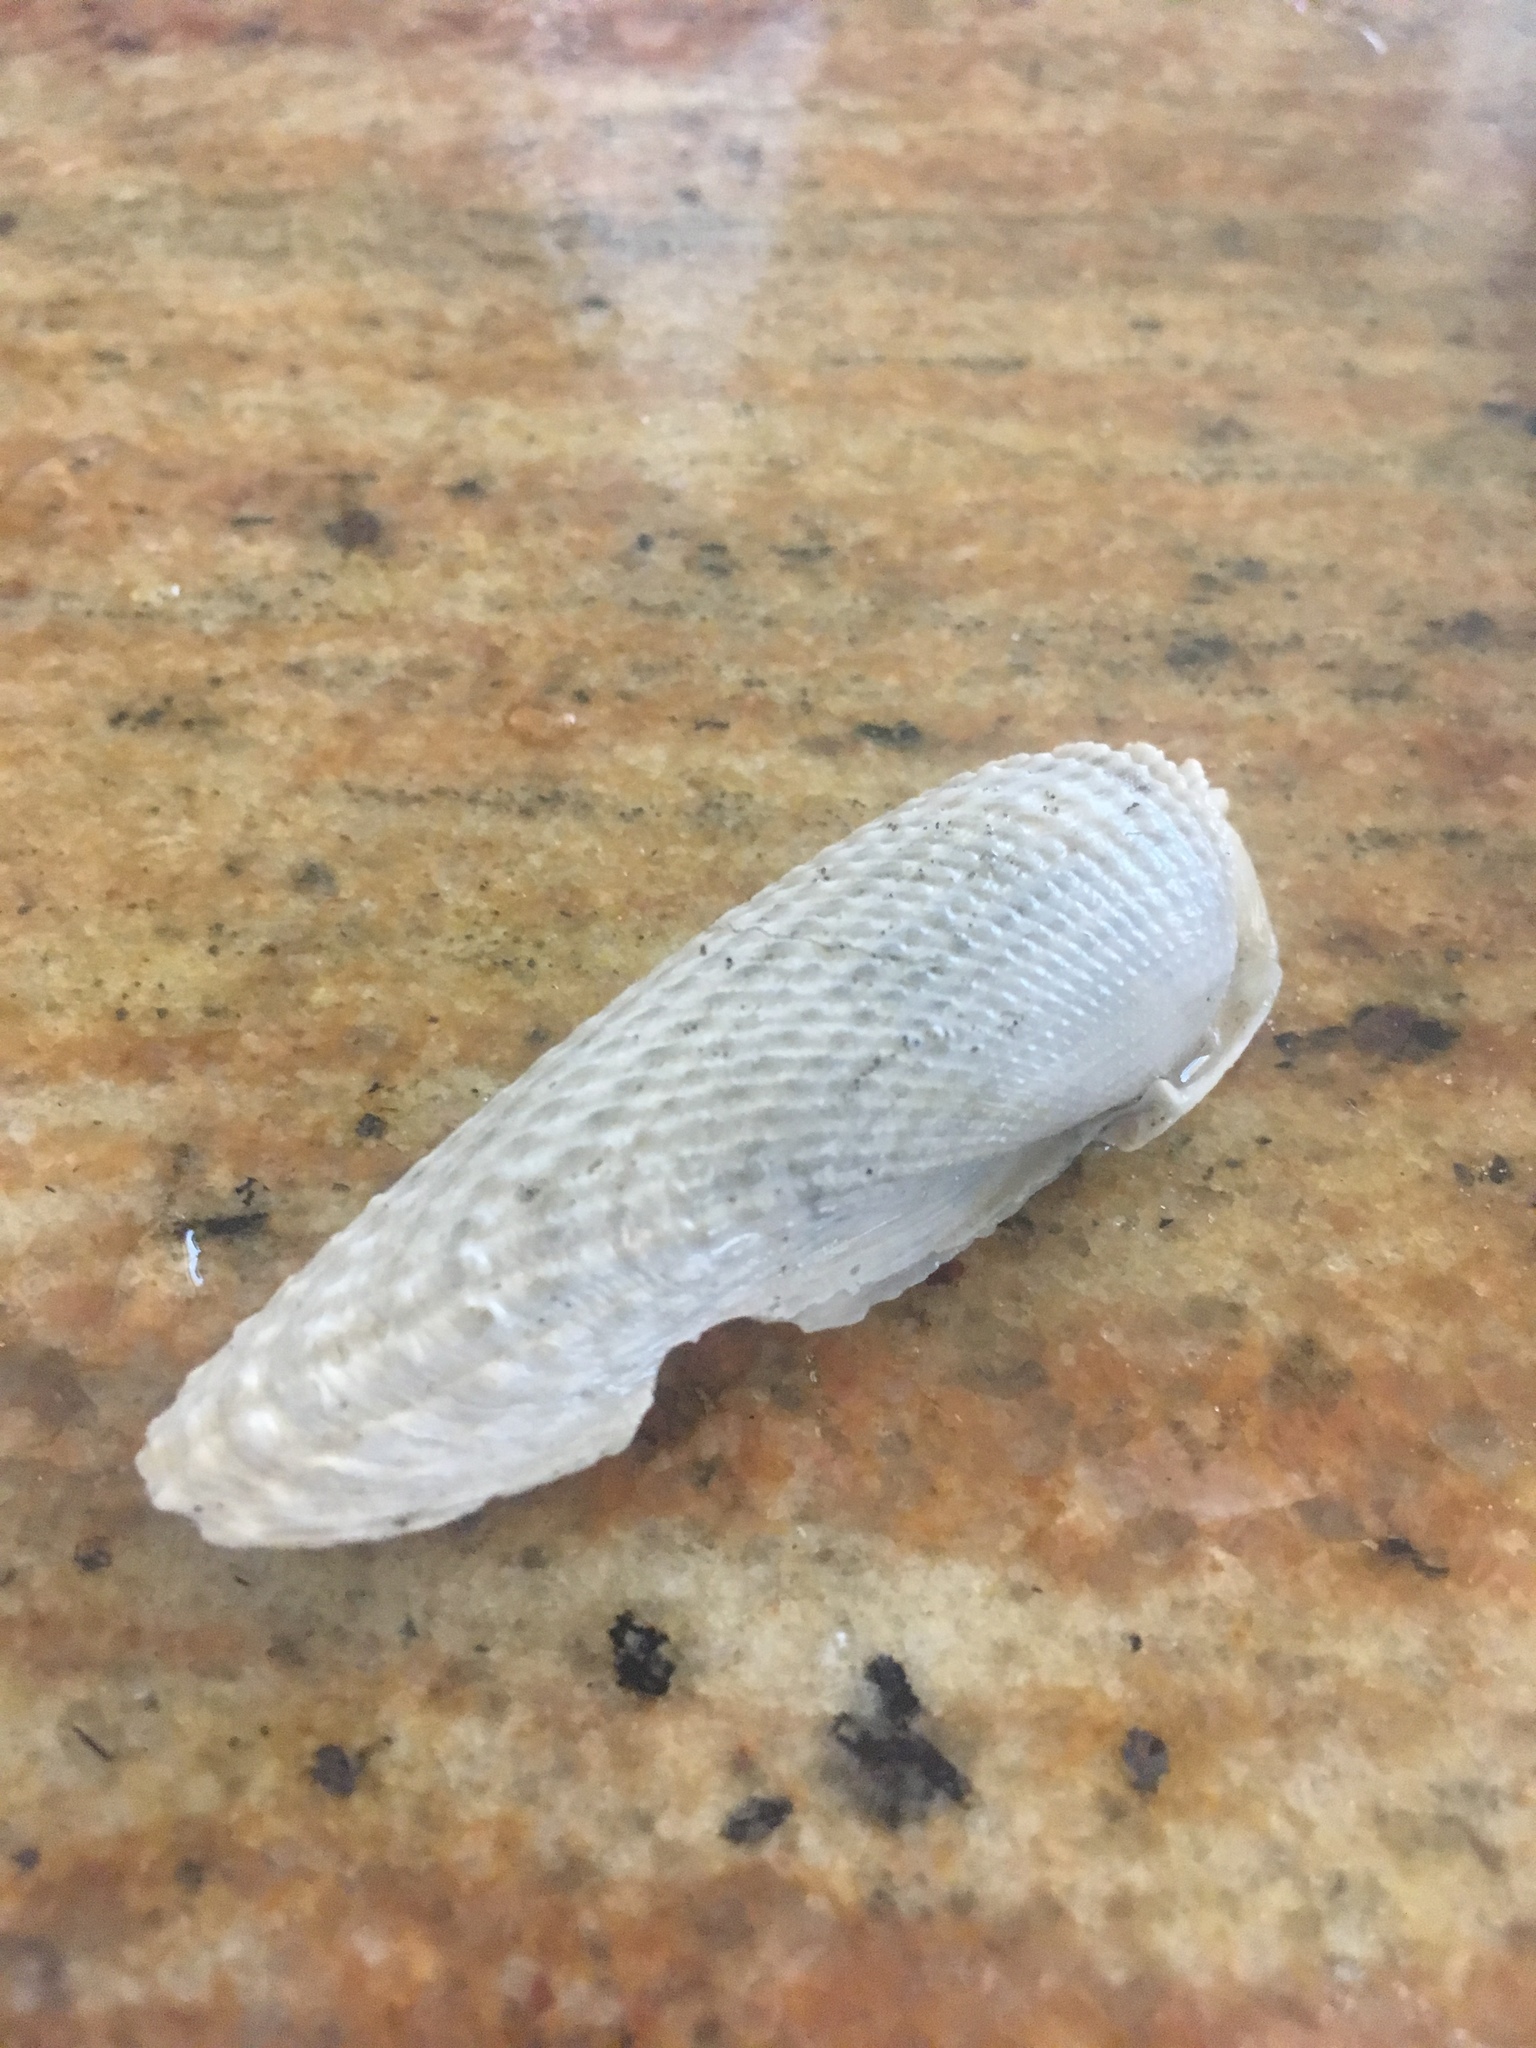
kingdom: Animalia
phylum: Mollusca
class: Bivalvia
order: Myida
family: Pholadidae
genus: Cyrtopleura
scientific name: Cyrtopleura costata
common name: Angel wing
